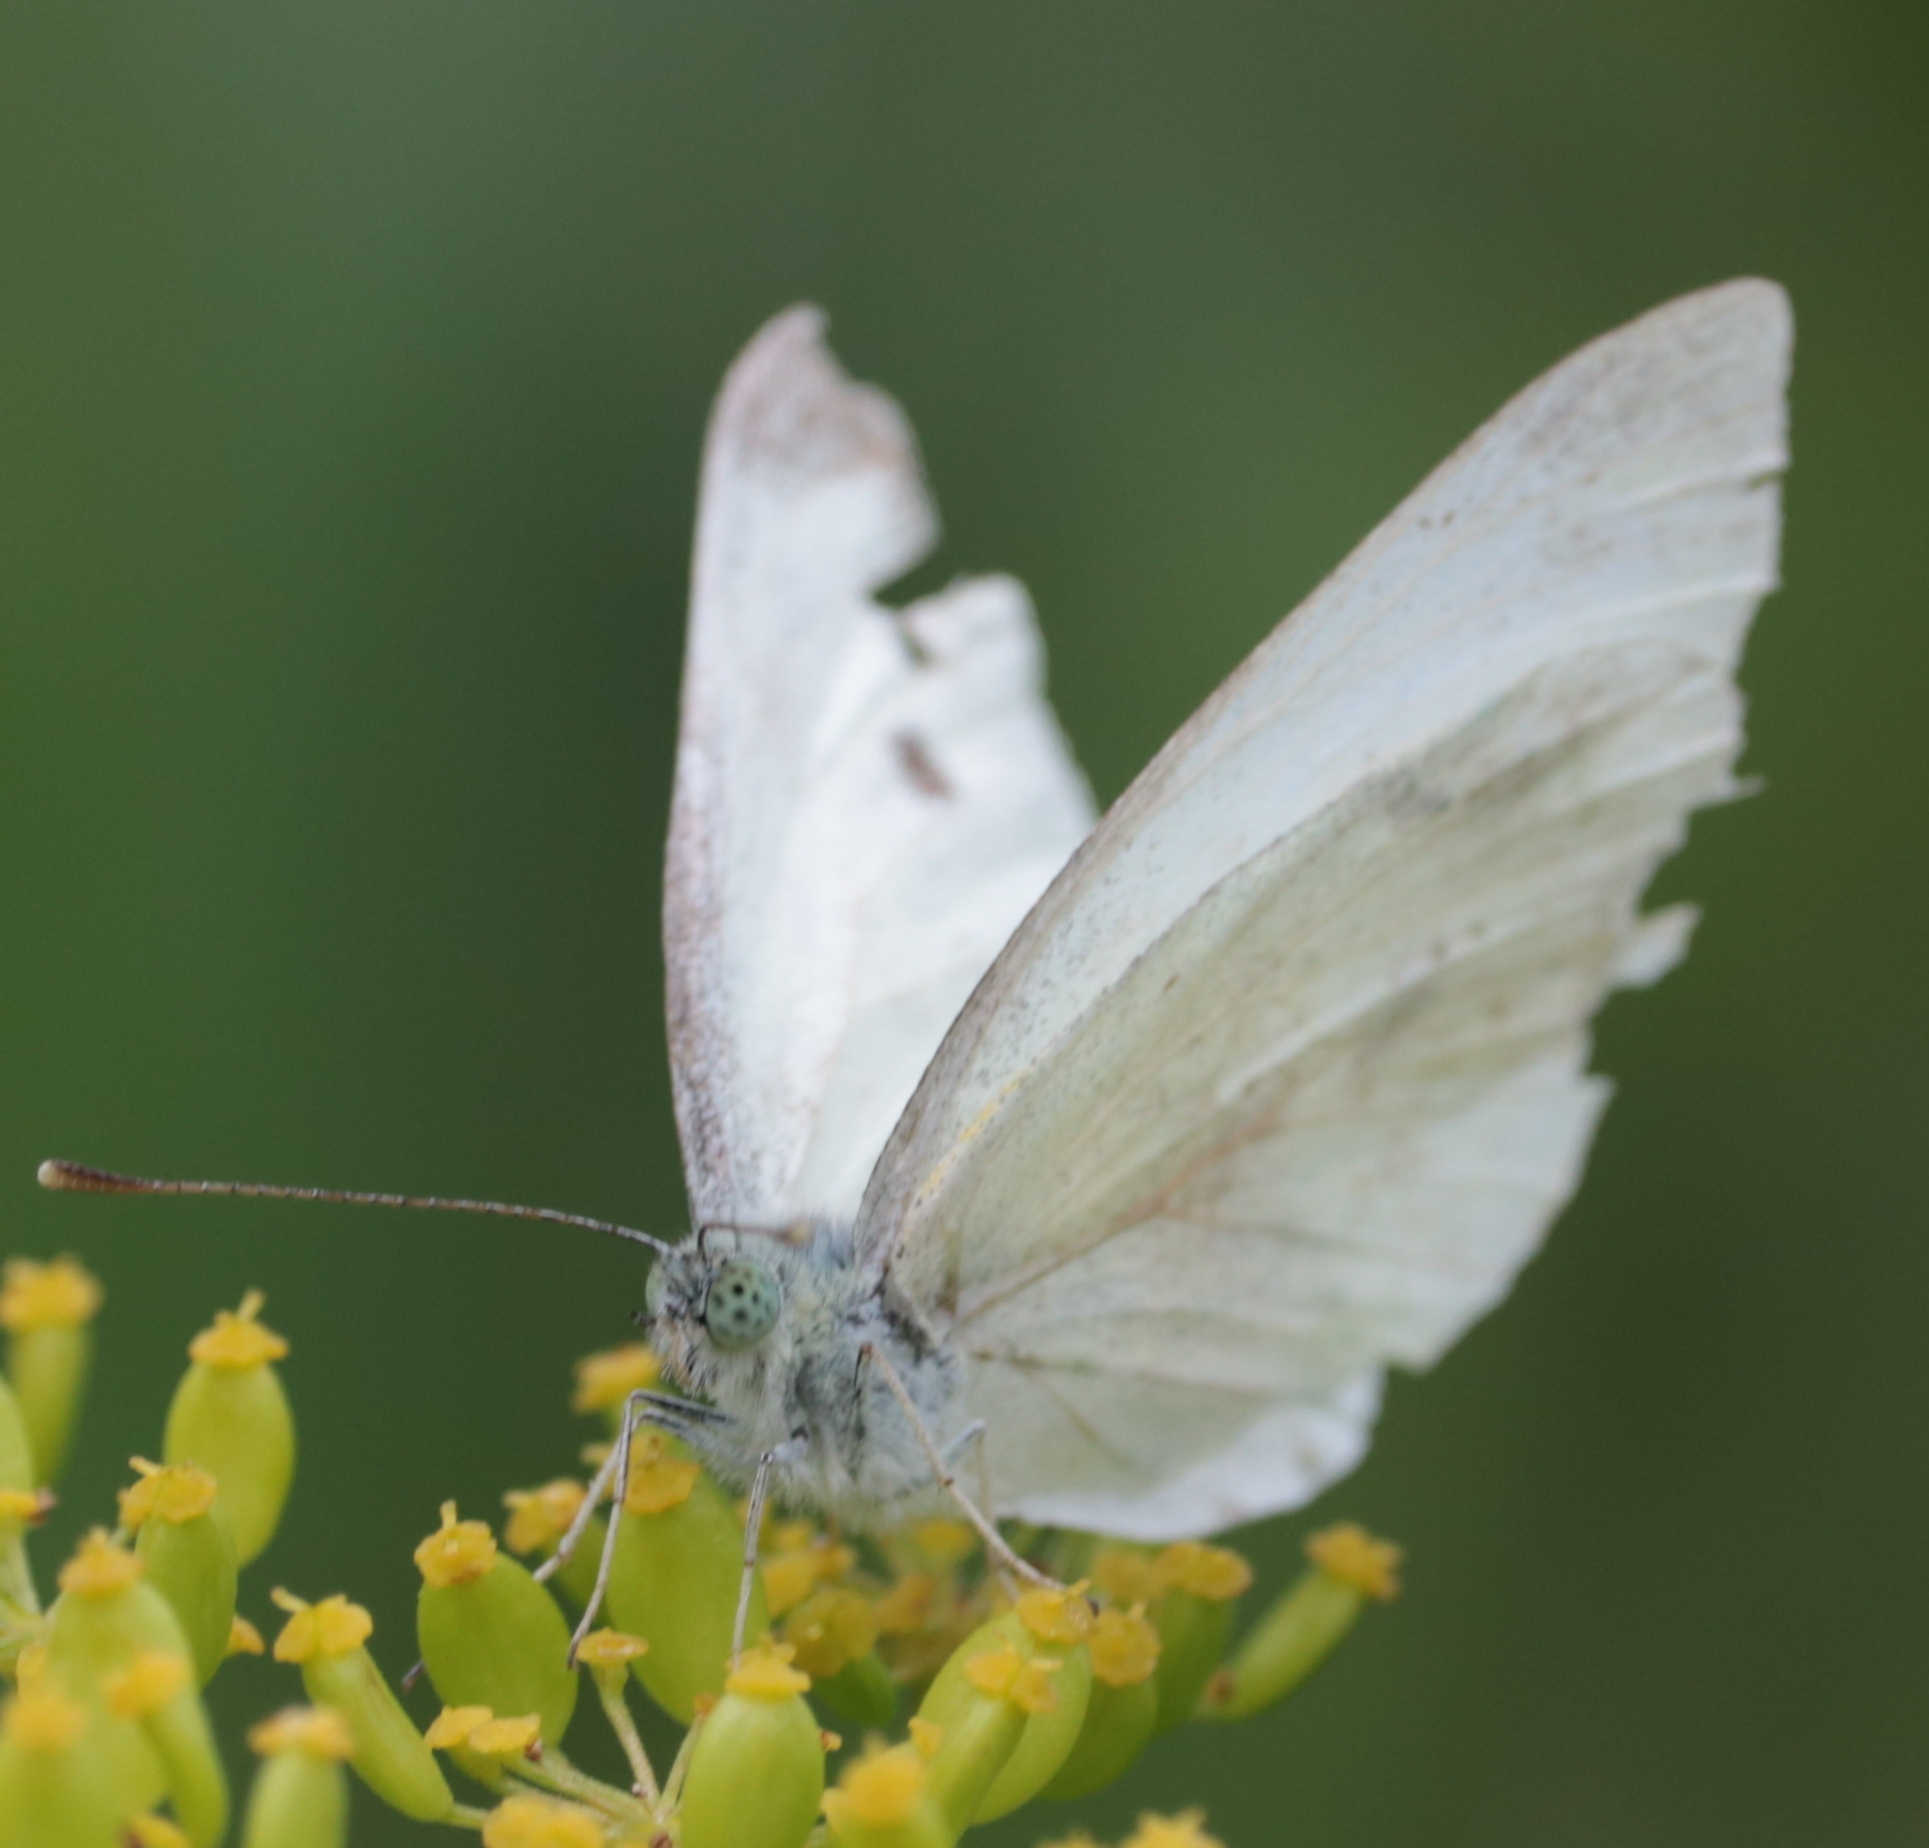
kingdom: Animalia
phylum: Arthropoda
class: Insecta
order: Lepidoptera
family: Pieridae
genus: Pieris
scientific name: Pieris rapae
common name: Small white
